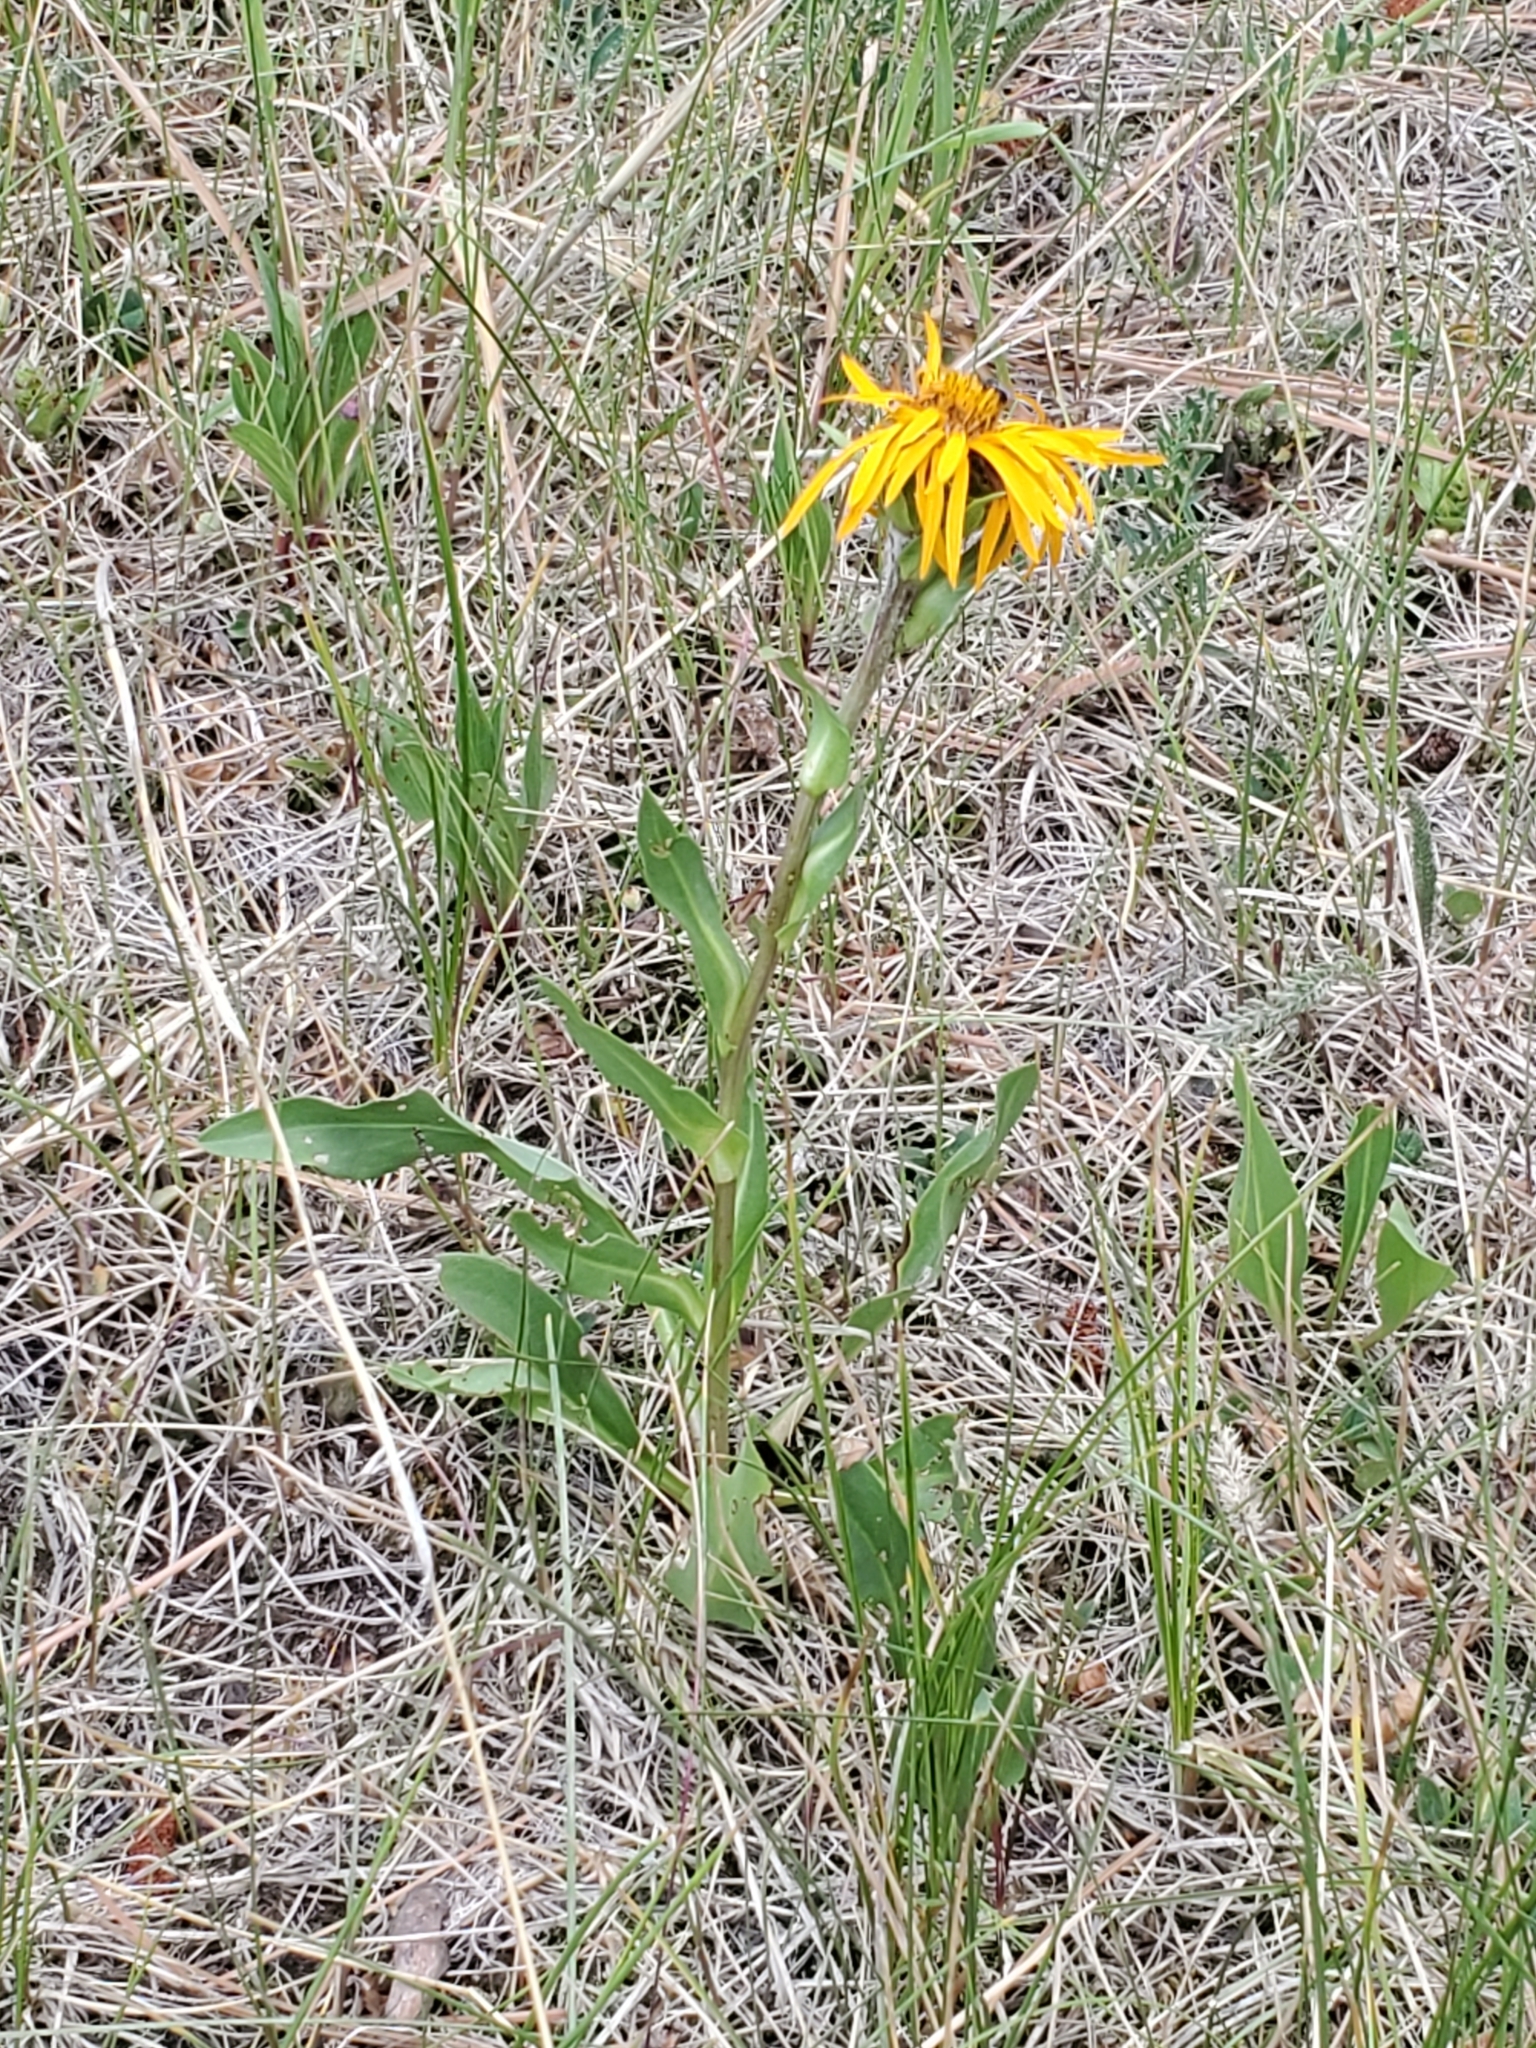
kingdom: Plantae
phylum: Tracheophyta
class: Magnoliopsida
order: Asterales
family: Asteraceae
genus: Pyrrocoma
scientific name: Pyrrocoma crocea
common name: Curly-head goldenweed
